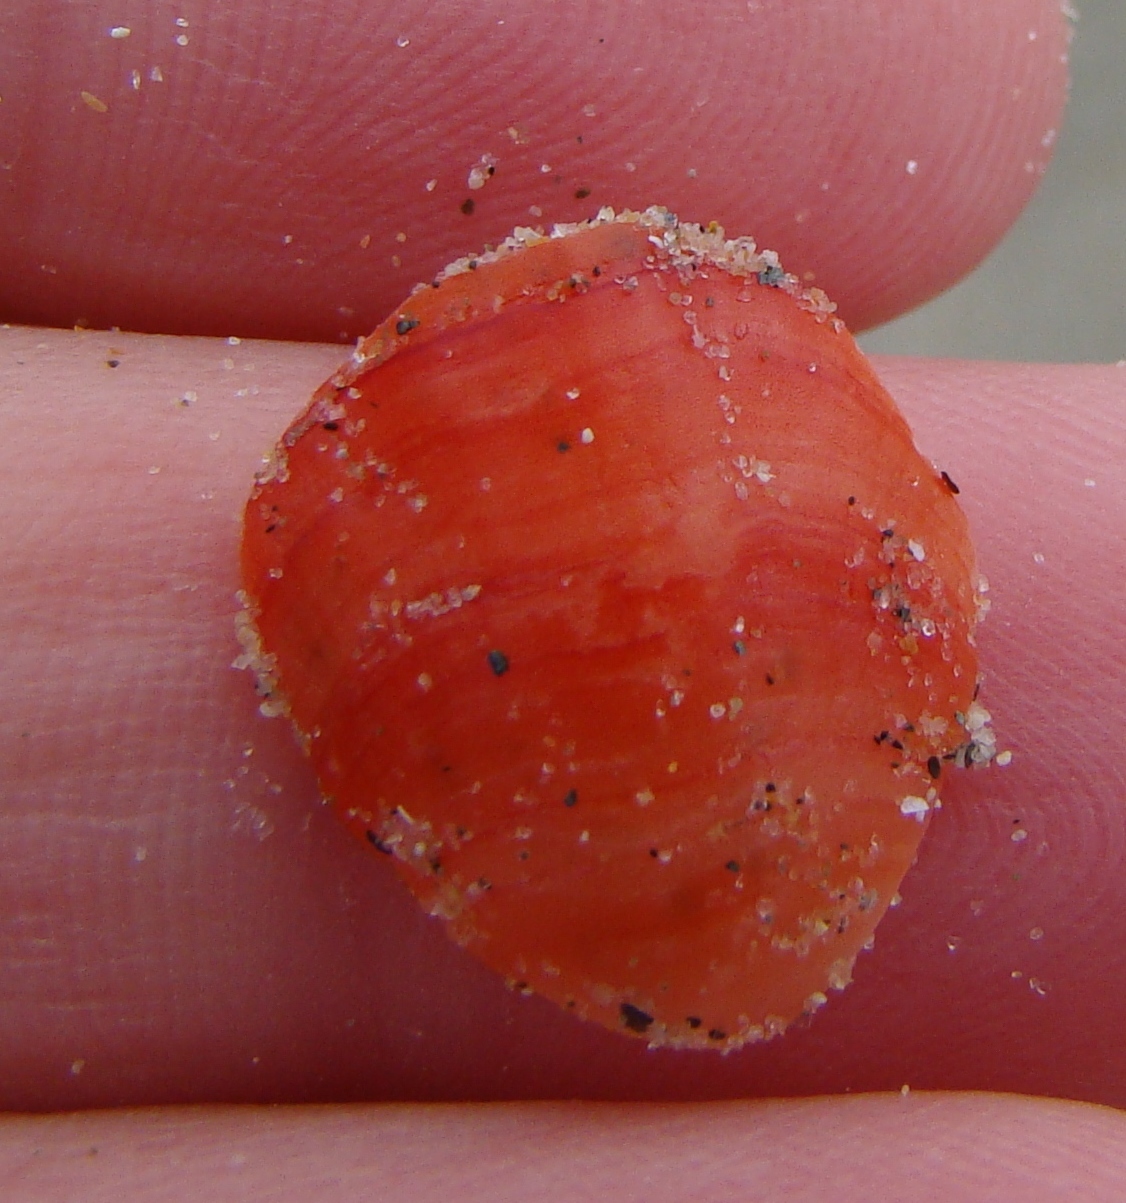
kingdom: Animalia
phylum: Brachiopoda
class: Rhynchonellata
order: Terebratulida
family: Terebratellidae
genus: Calloria
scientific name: Calloria inconspicua
